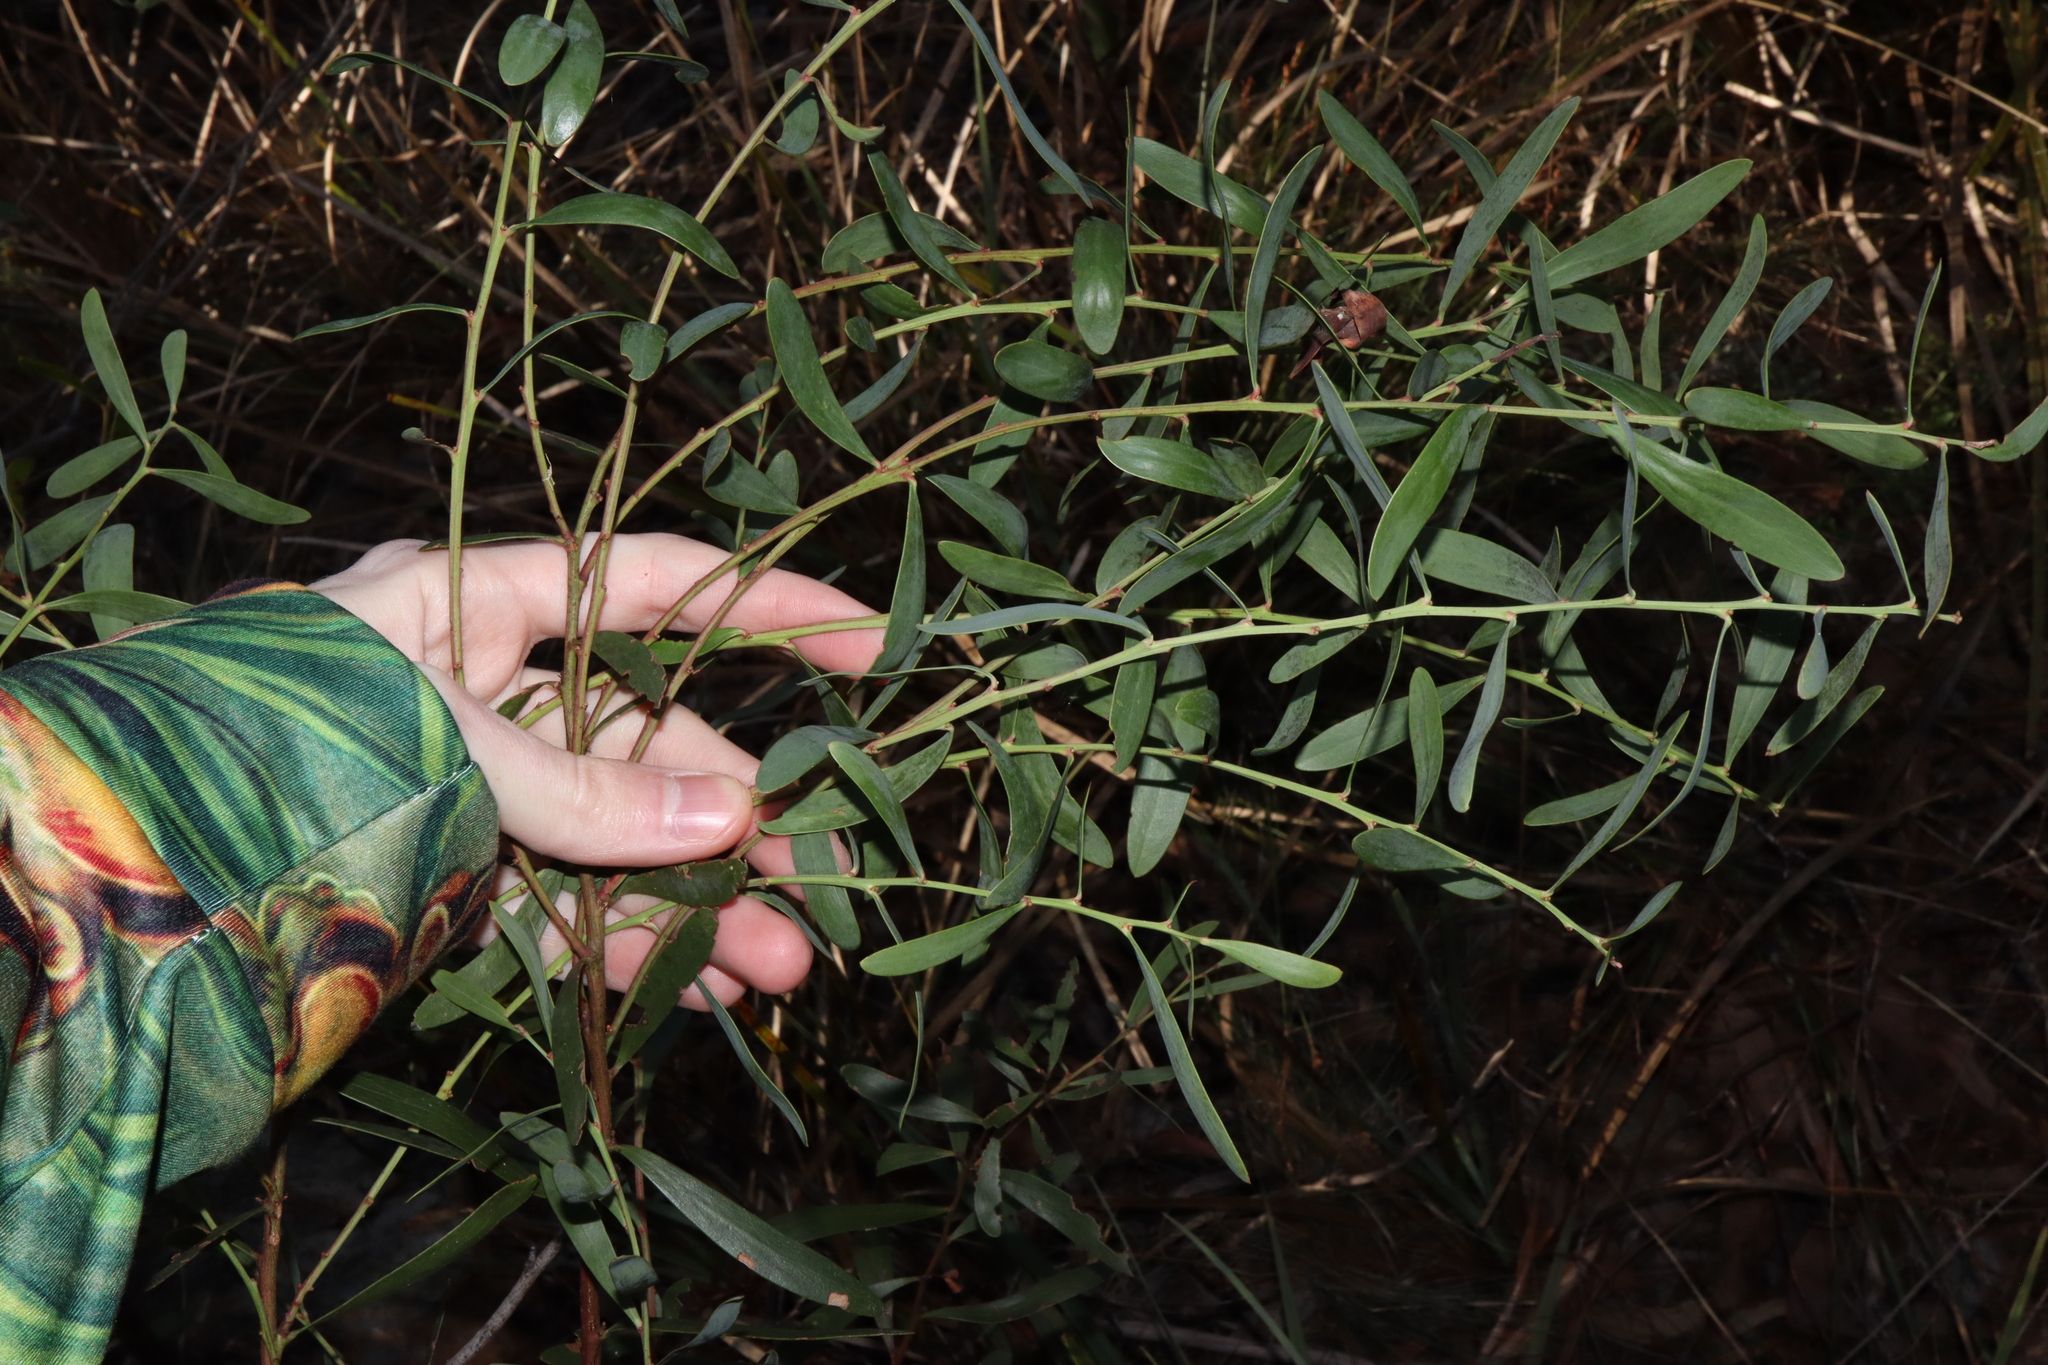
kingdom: Plantae
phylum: Tracheophyta
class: Magnoliopsida
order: Fabales
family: Fabaceae
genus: Daviesia
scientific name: Daviesia mimosoides
